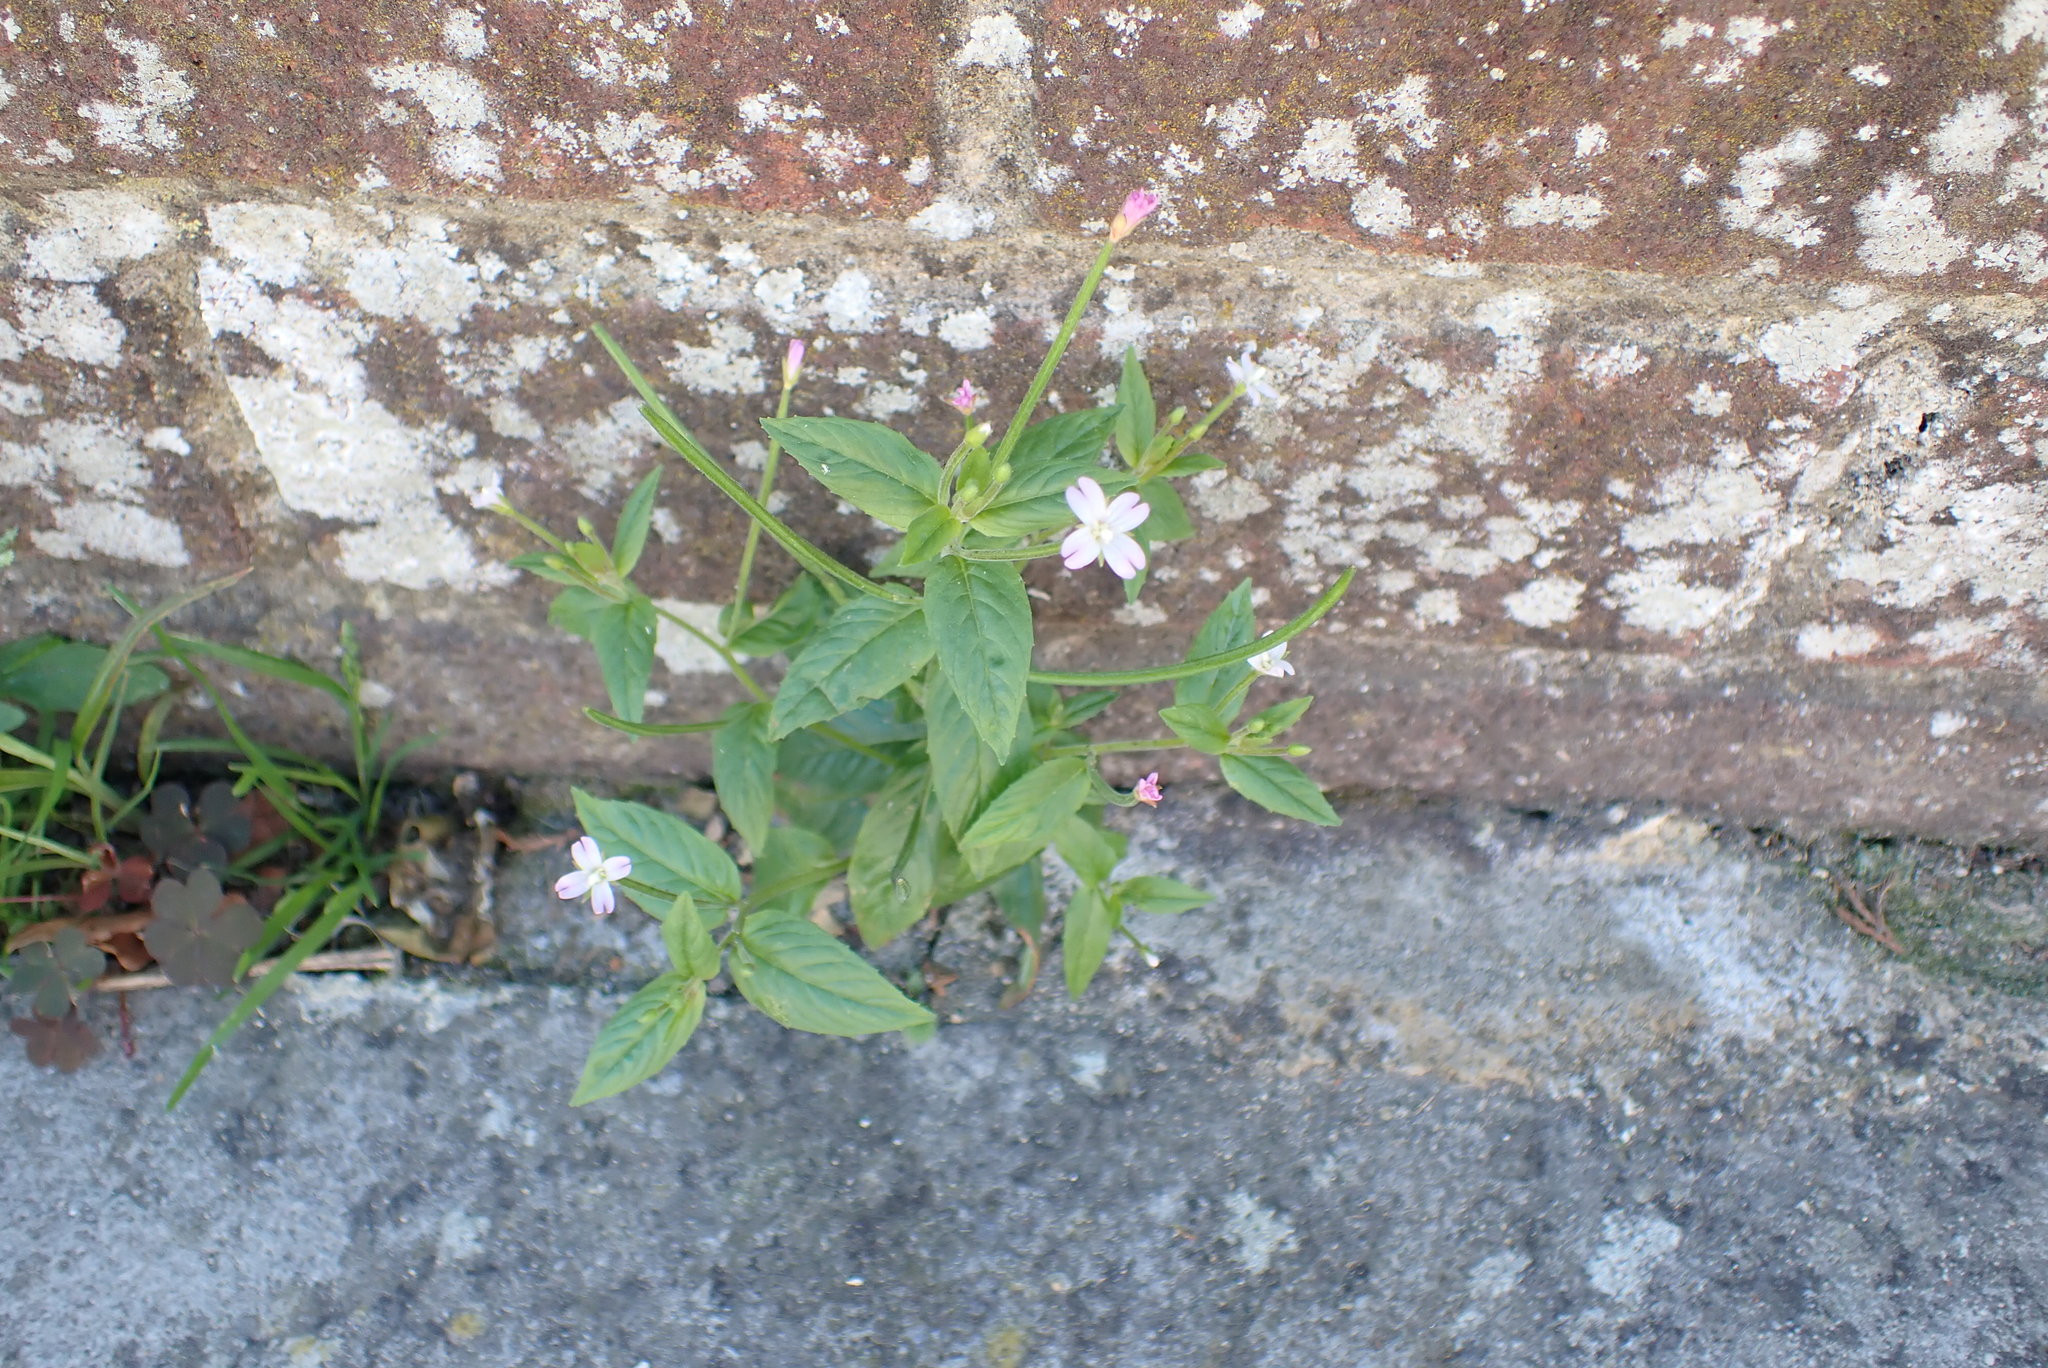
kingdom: Plantae
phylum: Tracheophyta
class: Magnoliopsida
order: Myrtales
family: Onagraceae
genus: Epilobium
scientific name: Epilobium ciliatum
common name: American willowherb
